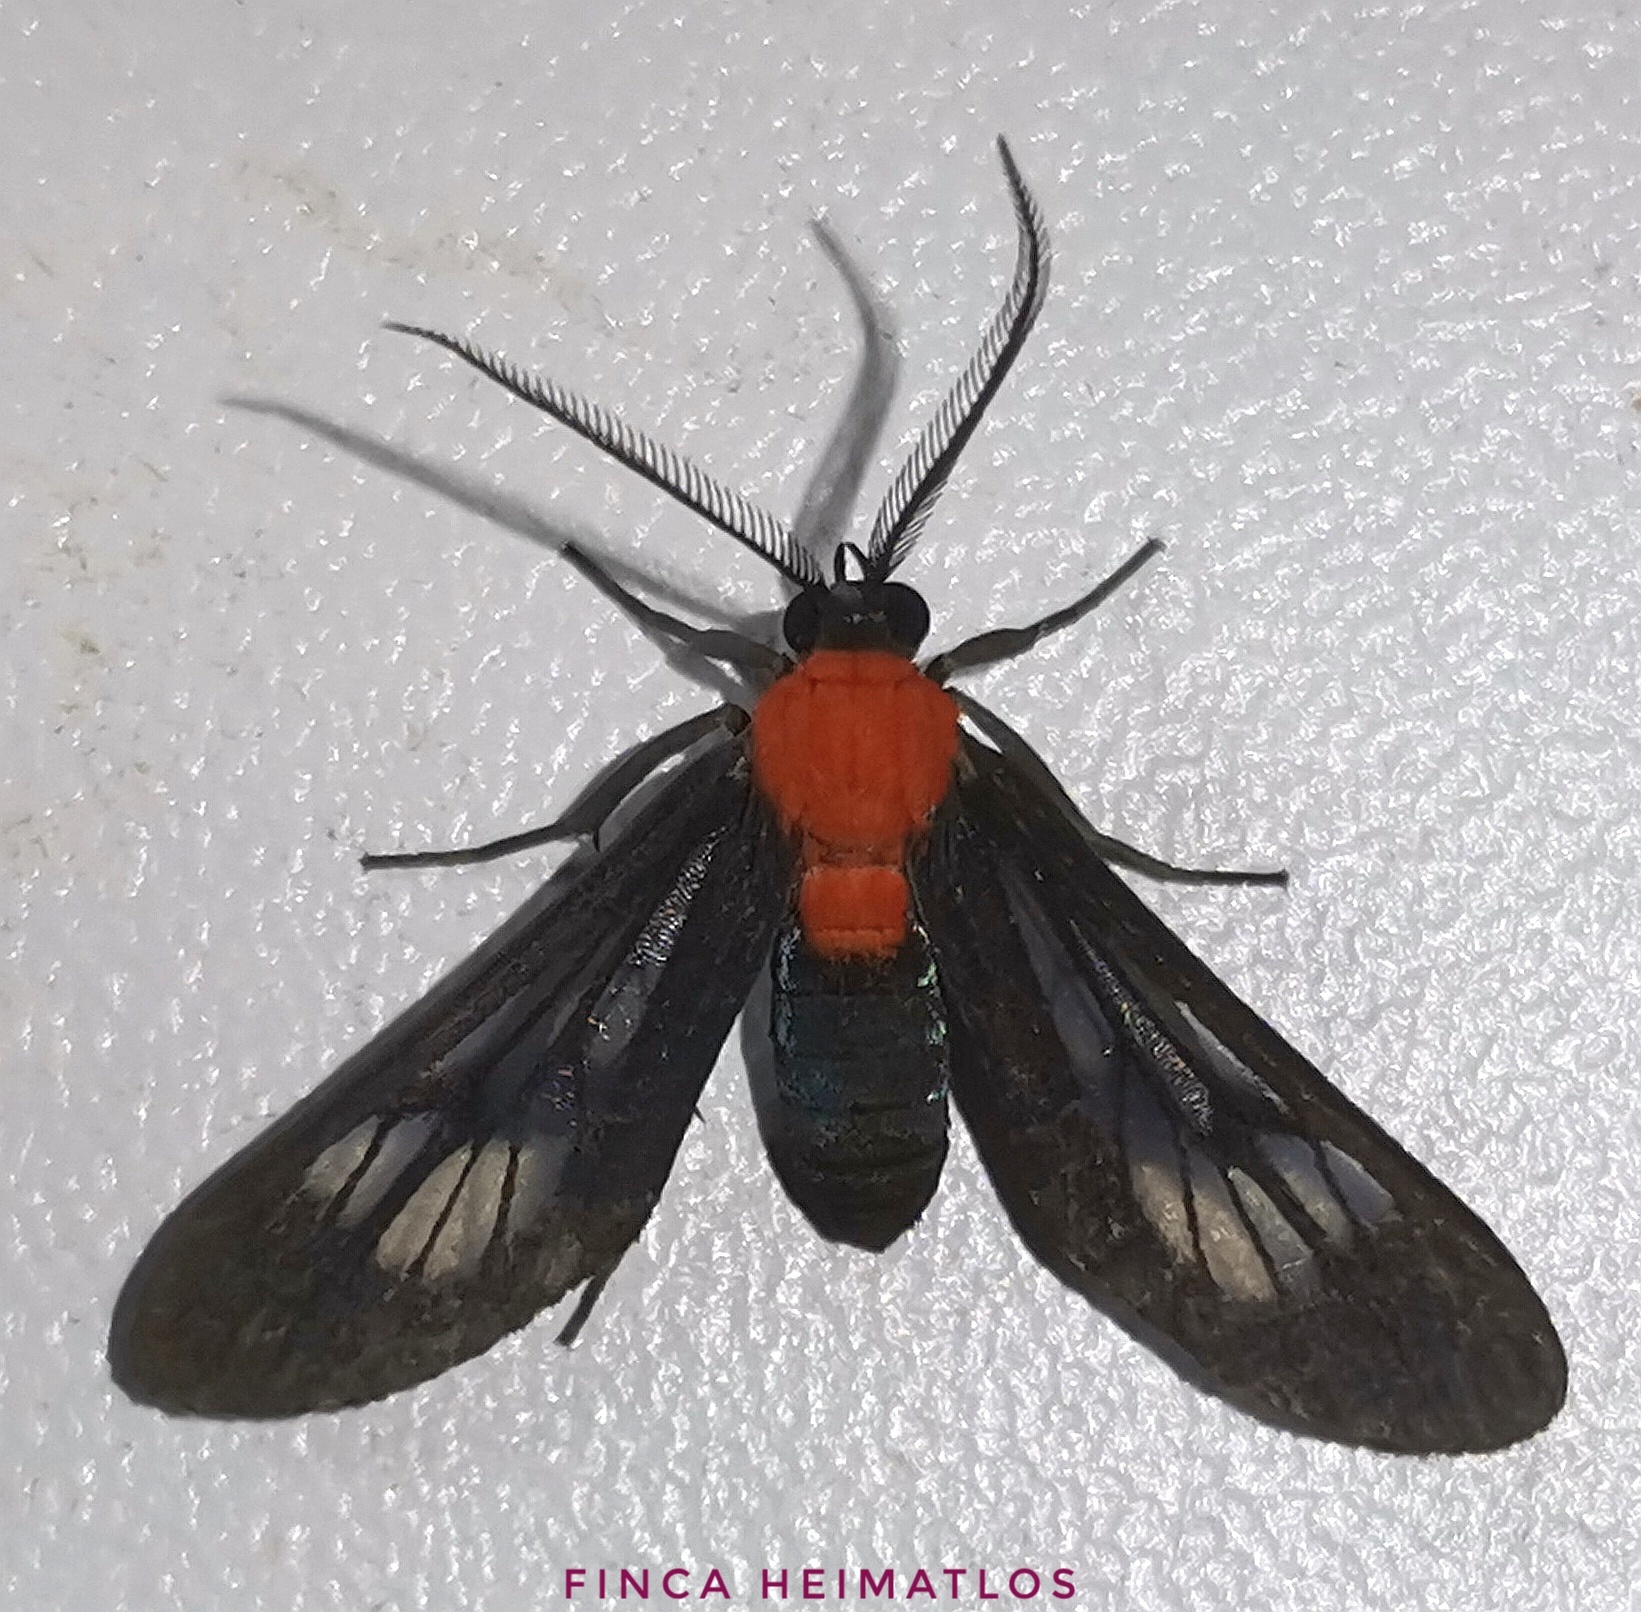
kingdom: Animalia
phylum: Arthropoda
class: Insecta
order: Lepidoptera
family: Erebidae
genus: Saurita
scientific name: Saurita hilda
